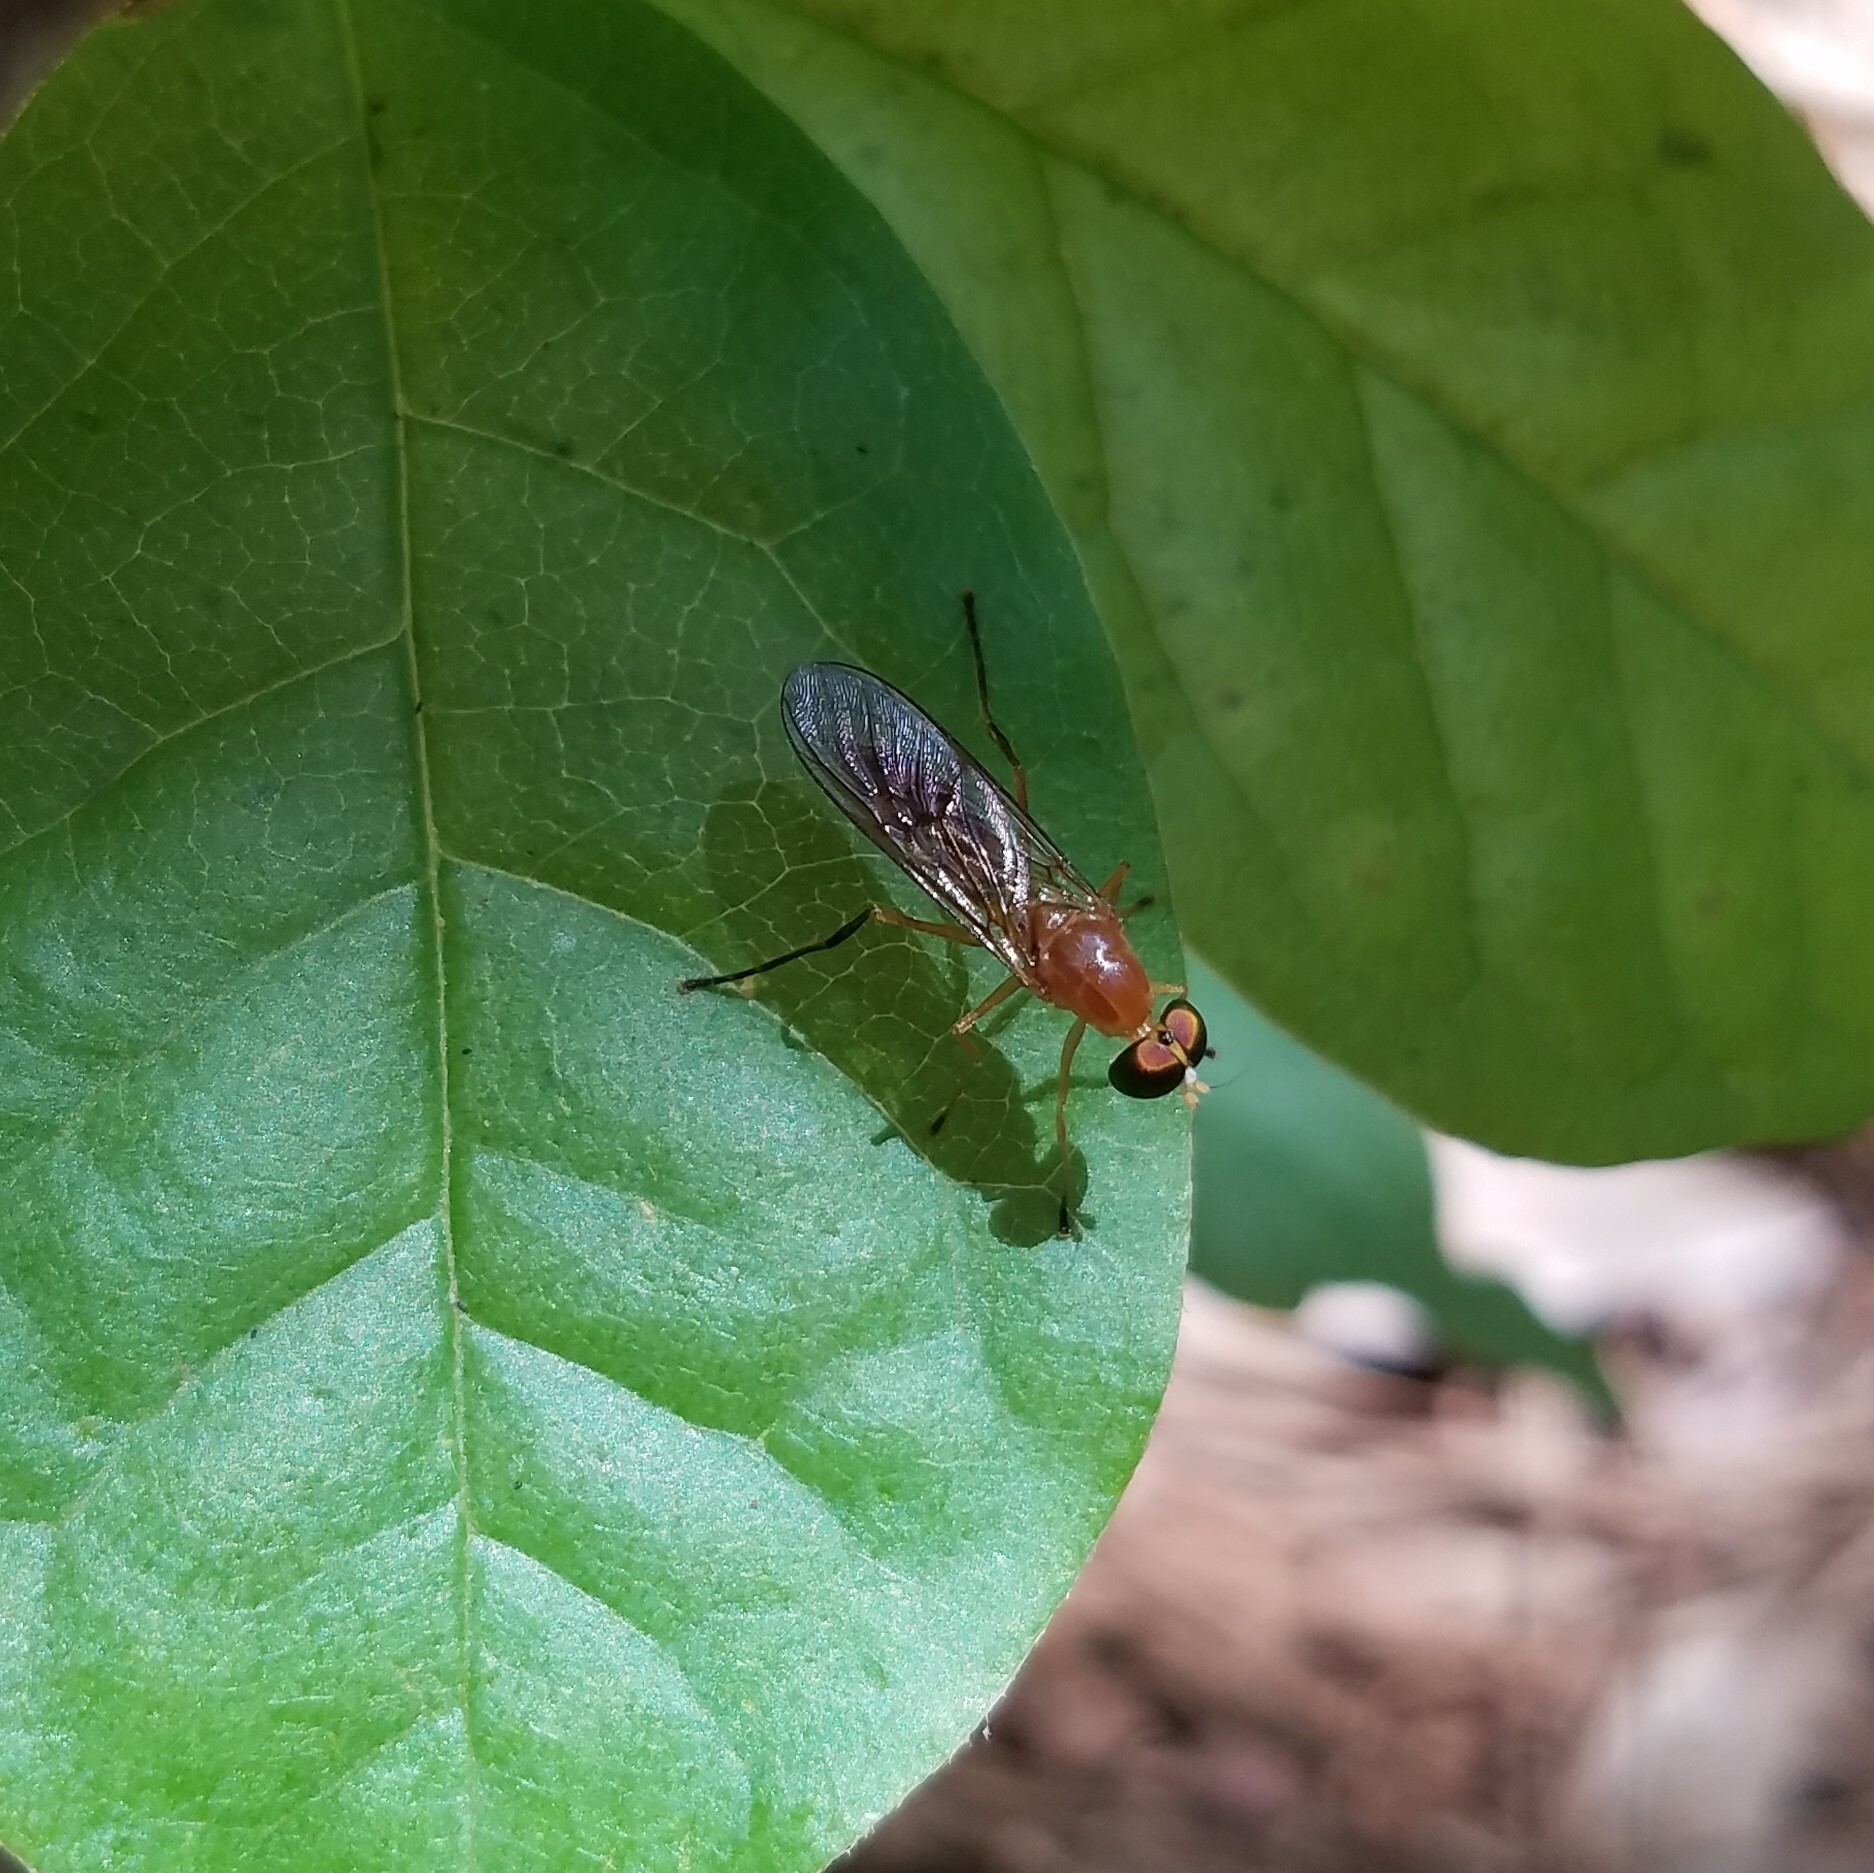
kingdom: Animalia
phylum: Arthropoda
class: Insecta
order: Diptera
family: Stratiomyidae
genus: Ptecticus
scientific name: Ptecticus trivittatus
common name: Compost fly
